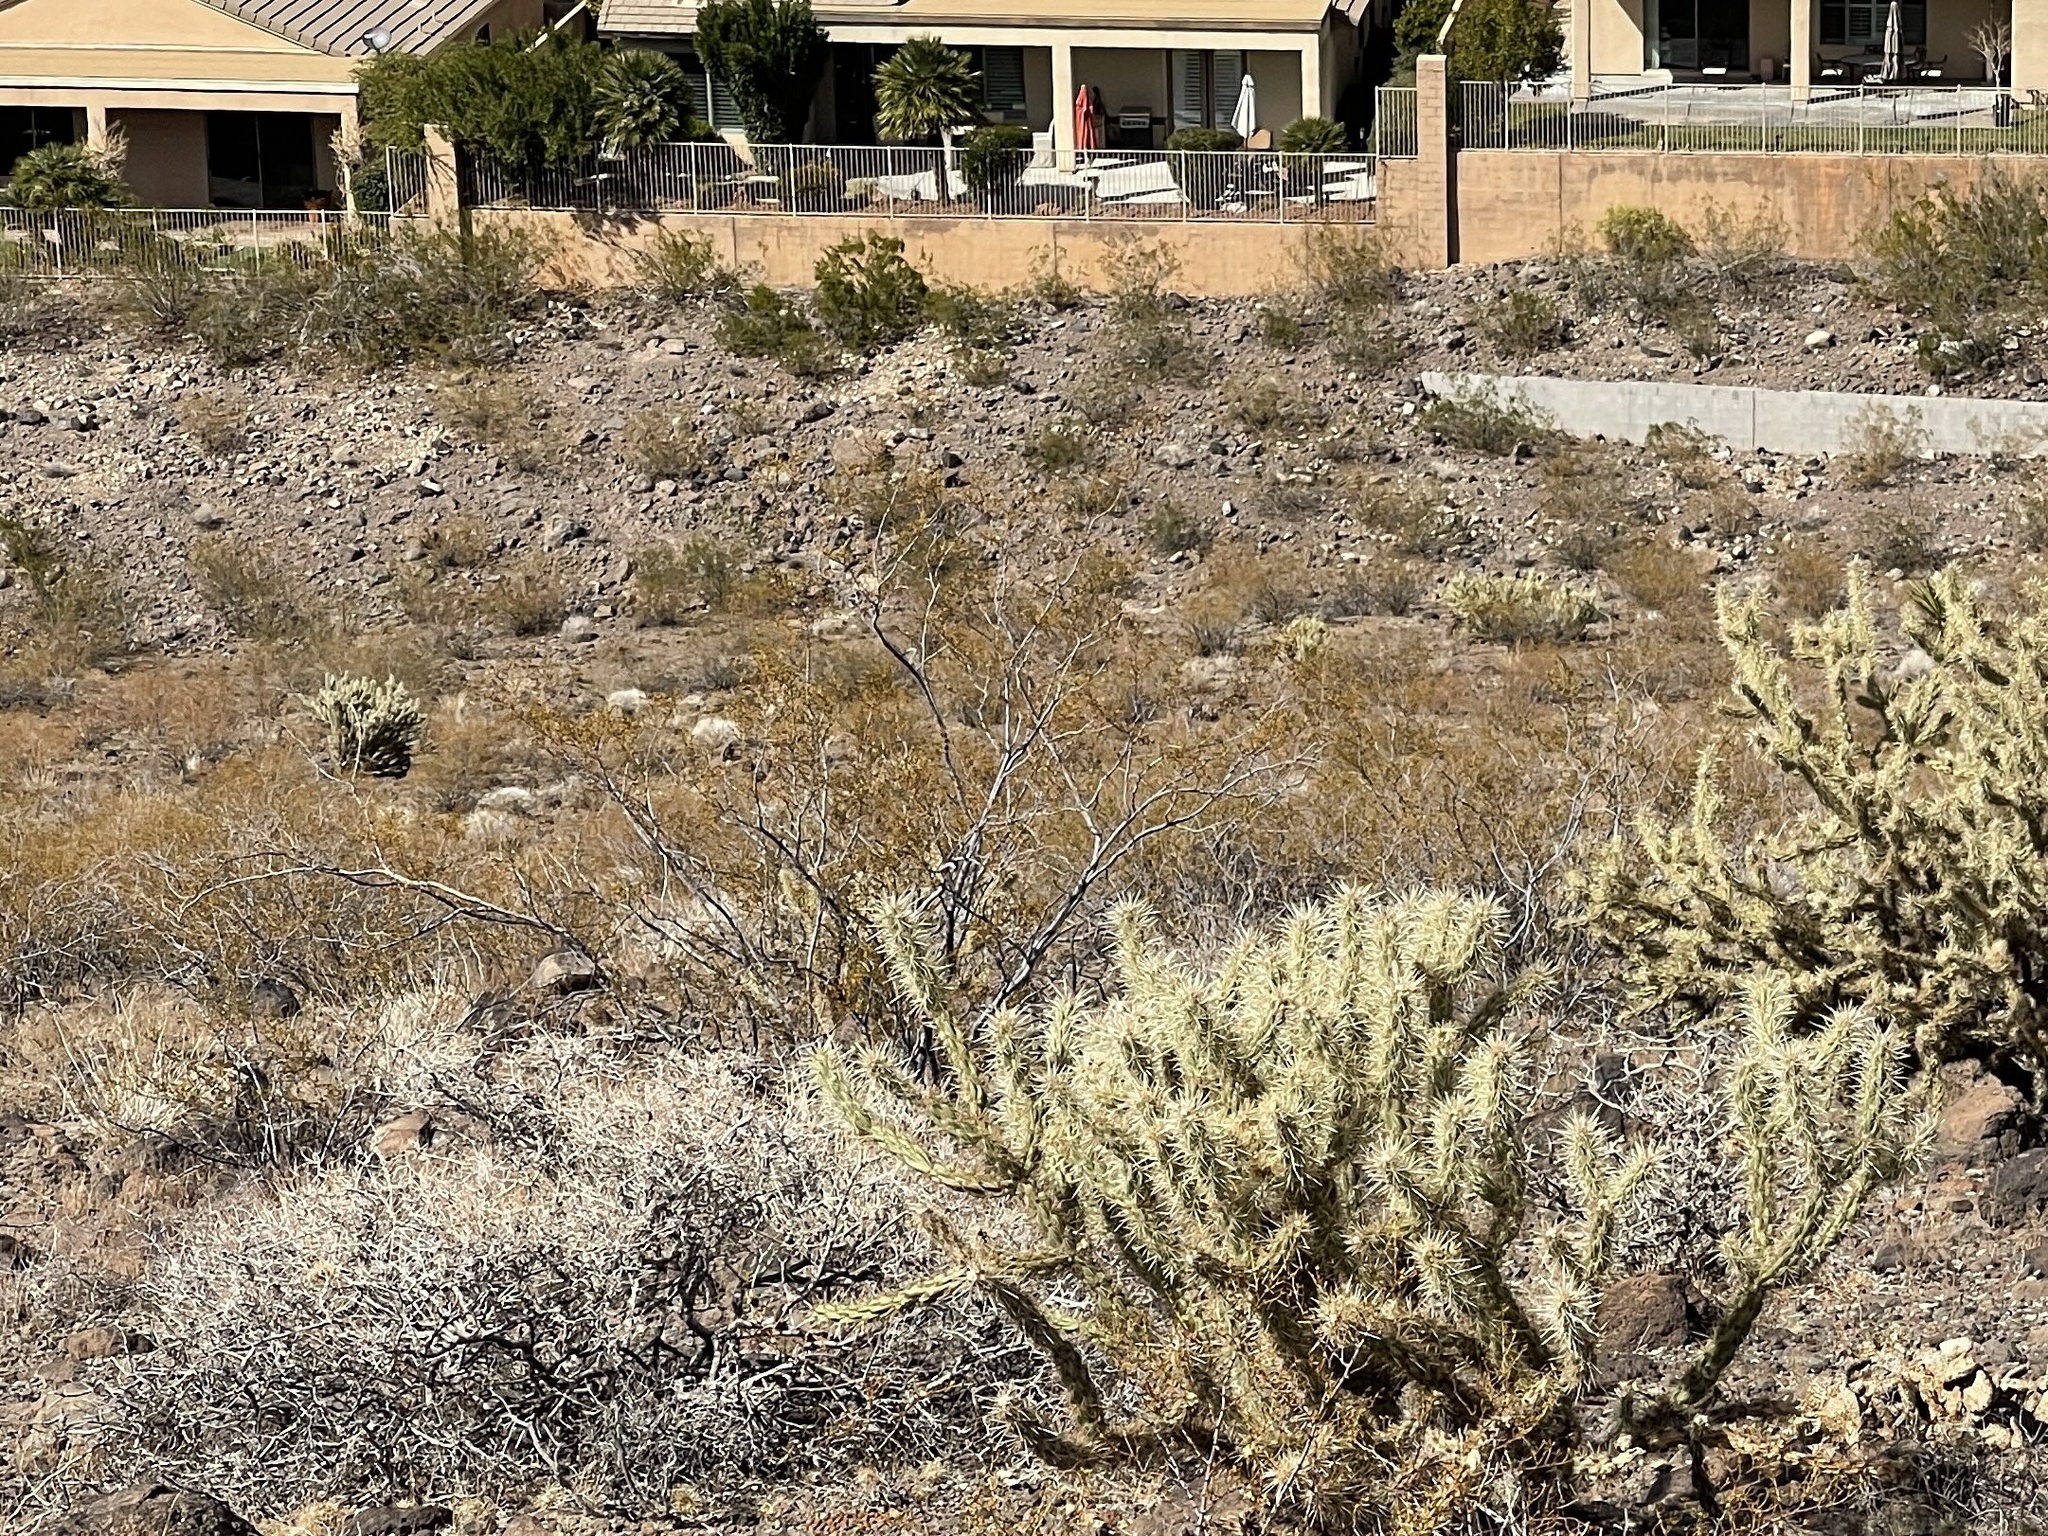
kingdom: Plantae
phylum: Tracheophyta
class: Magnoliopsida
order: Zygophyllales
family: Zygophyllaceae
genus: Larrea
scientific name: Larrea tridentata
